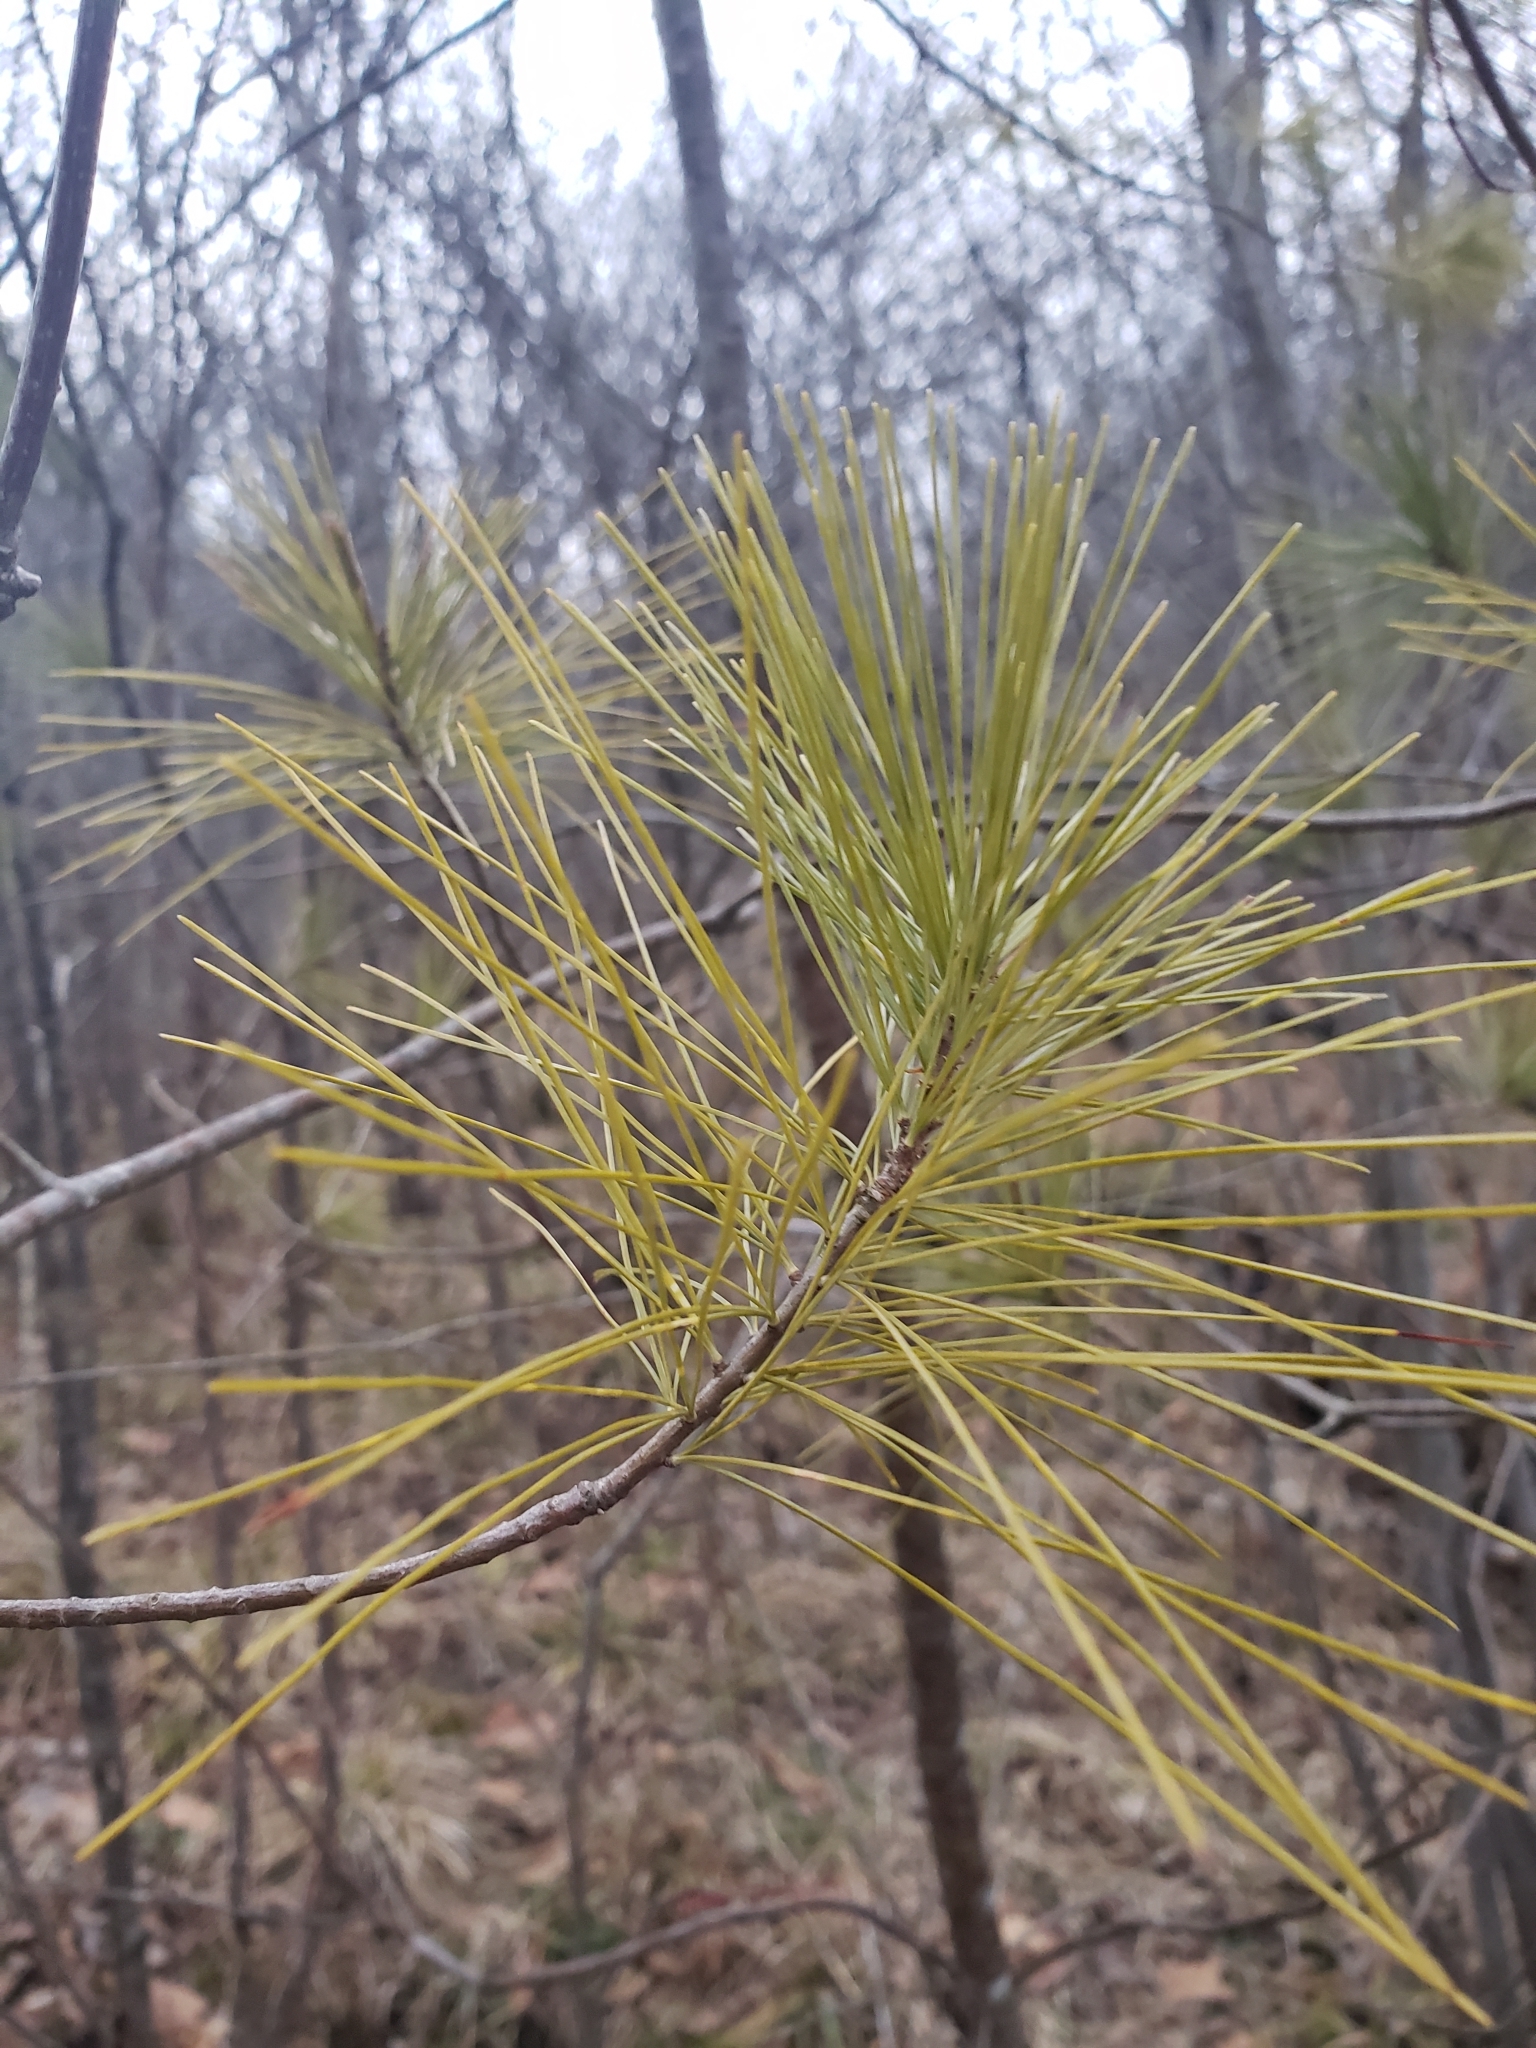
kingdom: Plantae
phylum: Tracheophyta
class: Pinopsida
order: Pinales
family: Pinaceae
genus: Pinus
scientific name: Pinus strobus
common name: Weymouth pine
